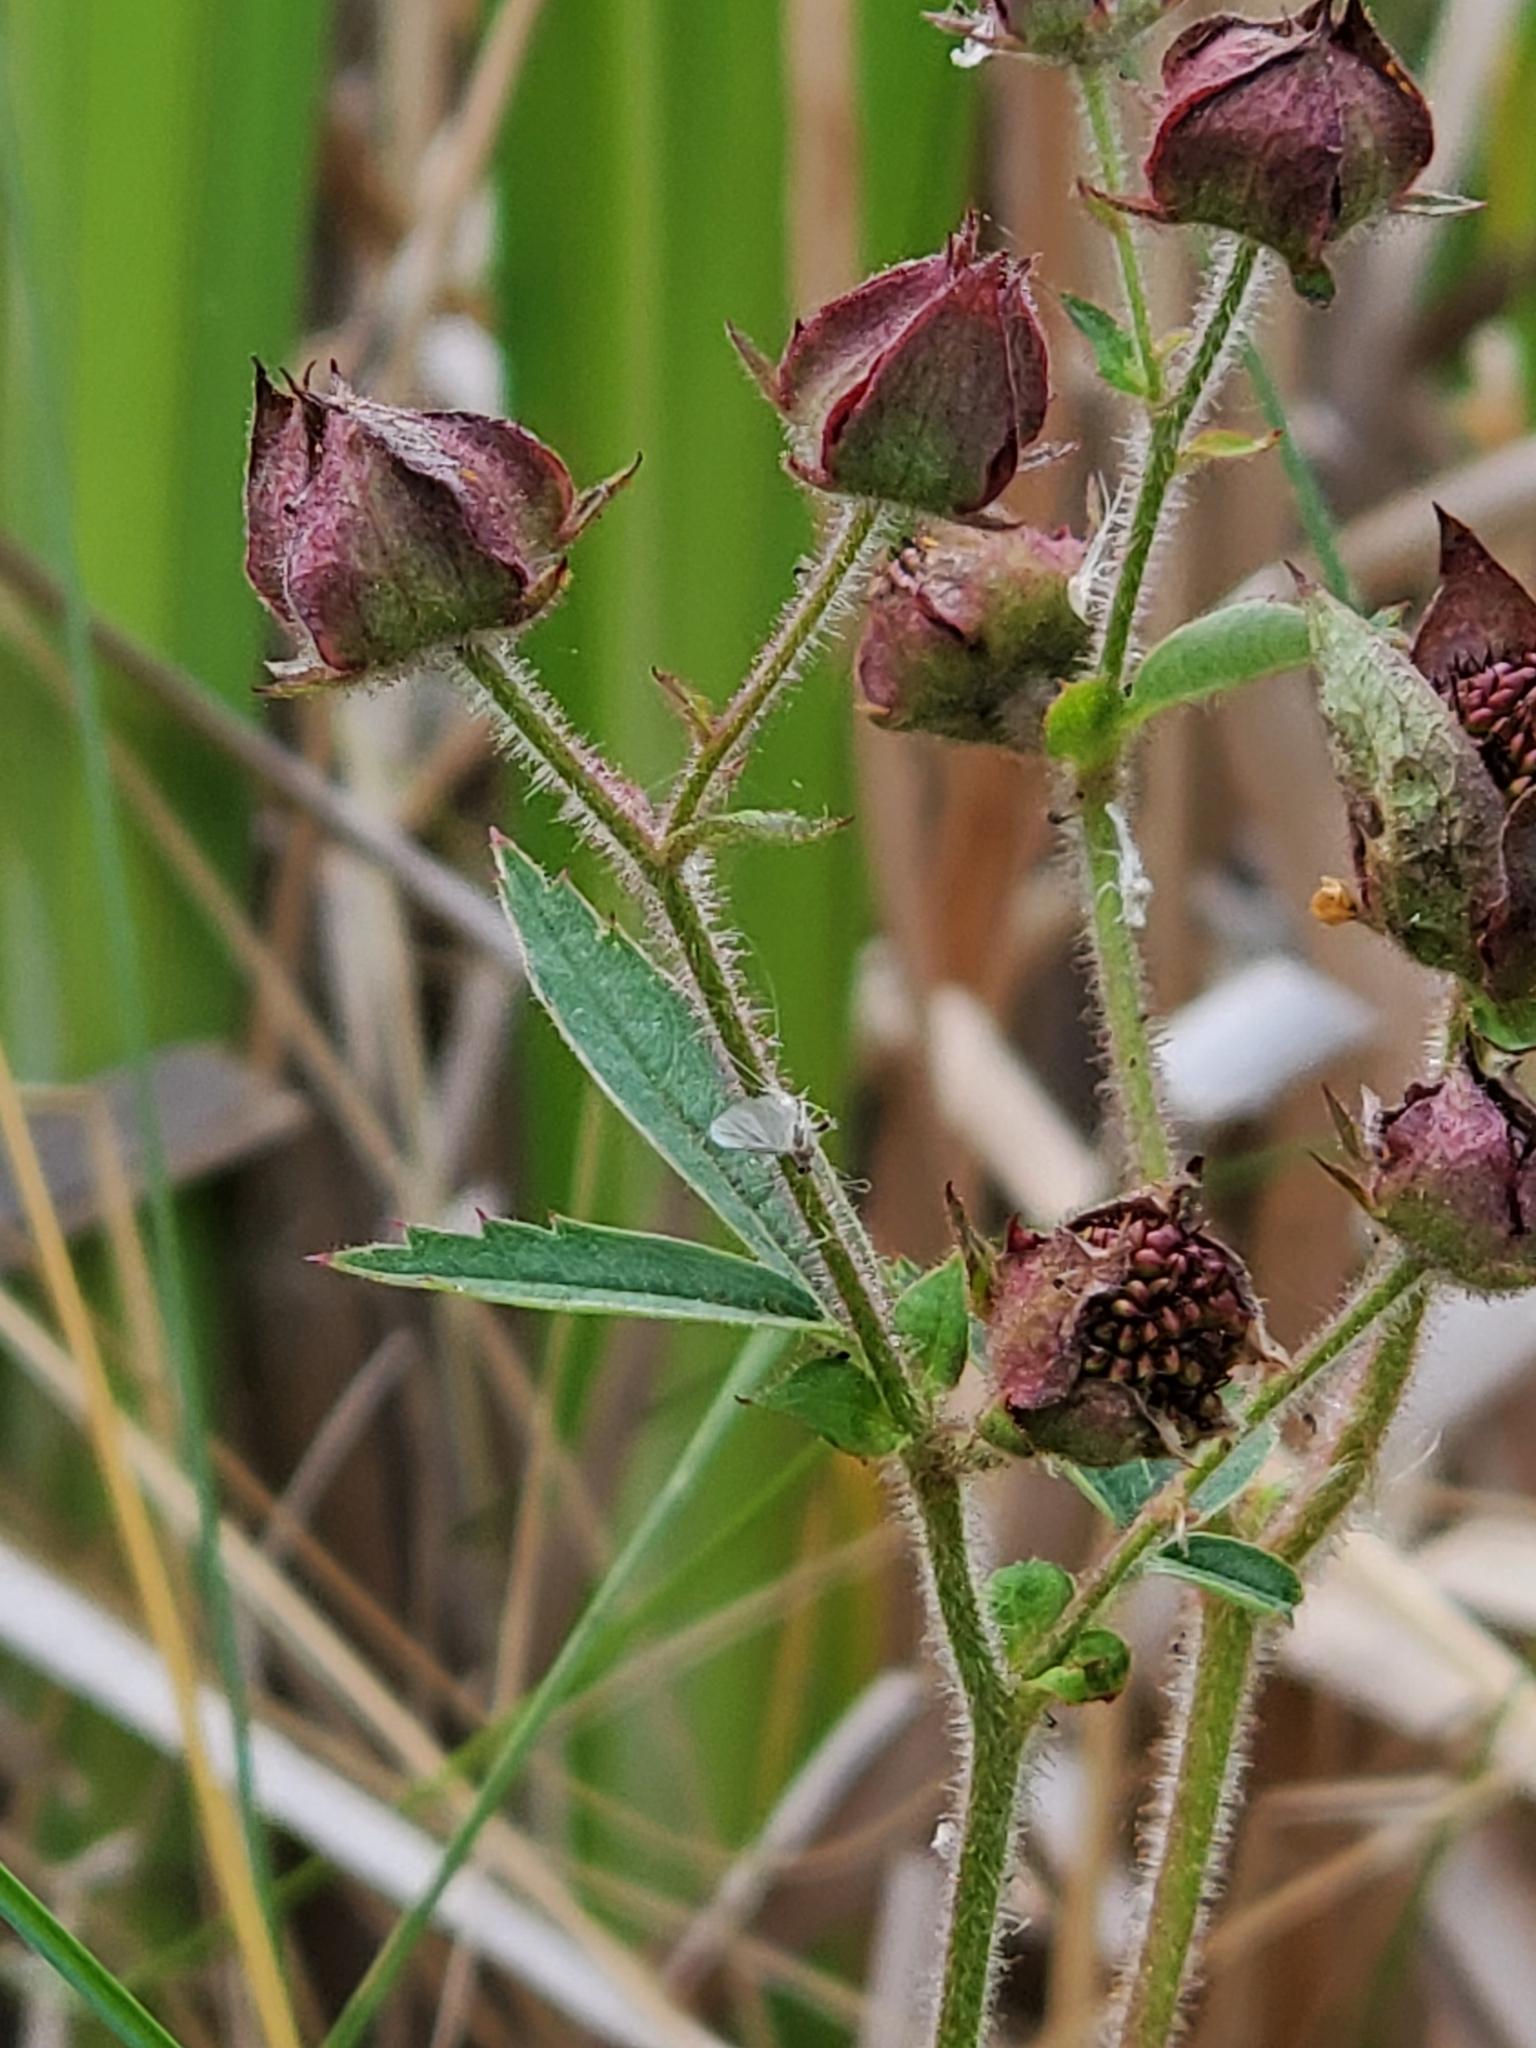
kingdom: Plantae
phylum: Tracheophyta
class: Magnoliopsida
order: Rosales
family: Rosaceae
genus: Comarum
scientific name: Comarum palustre
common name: Marsh cinquefoil
